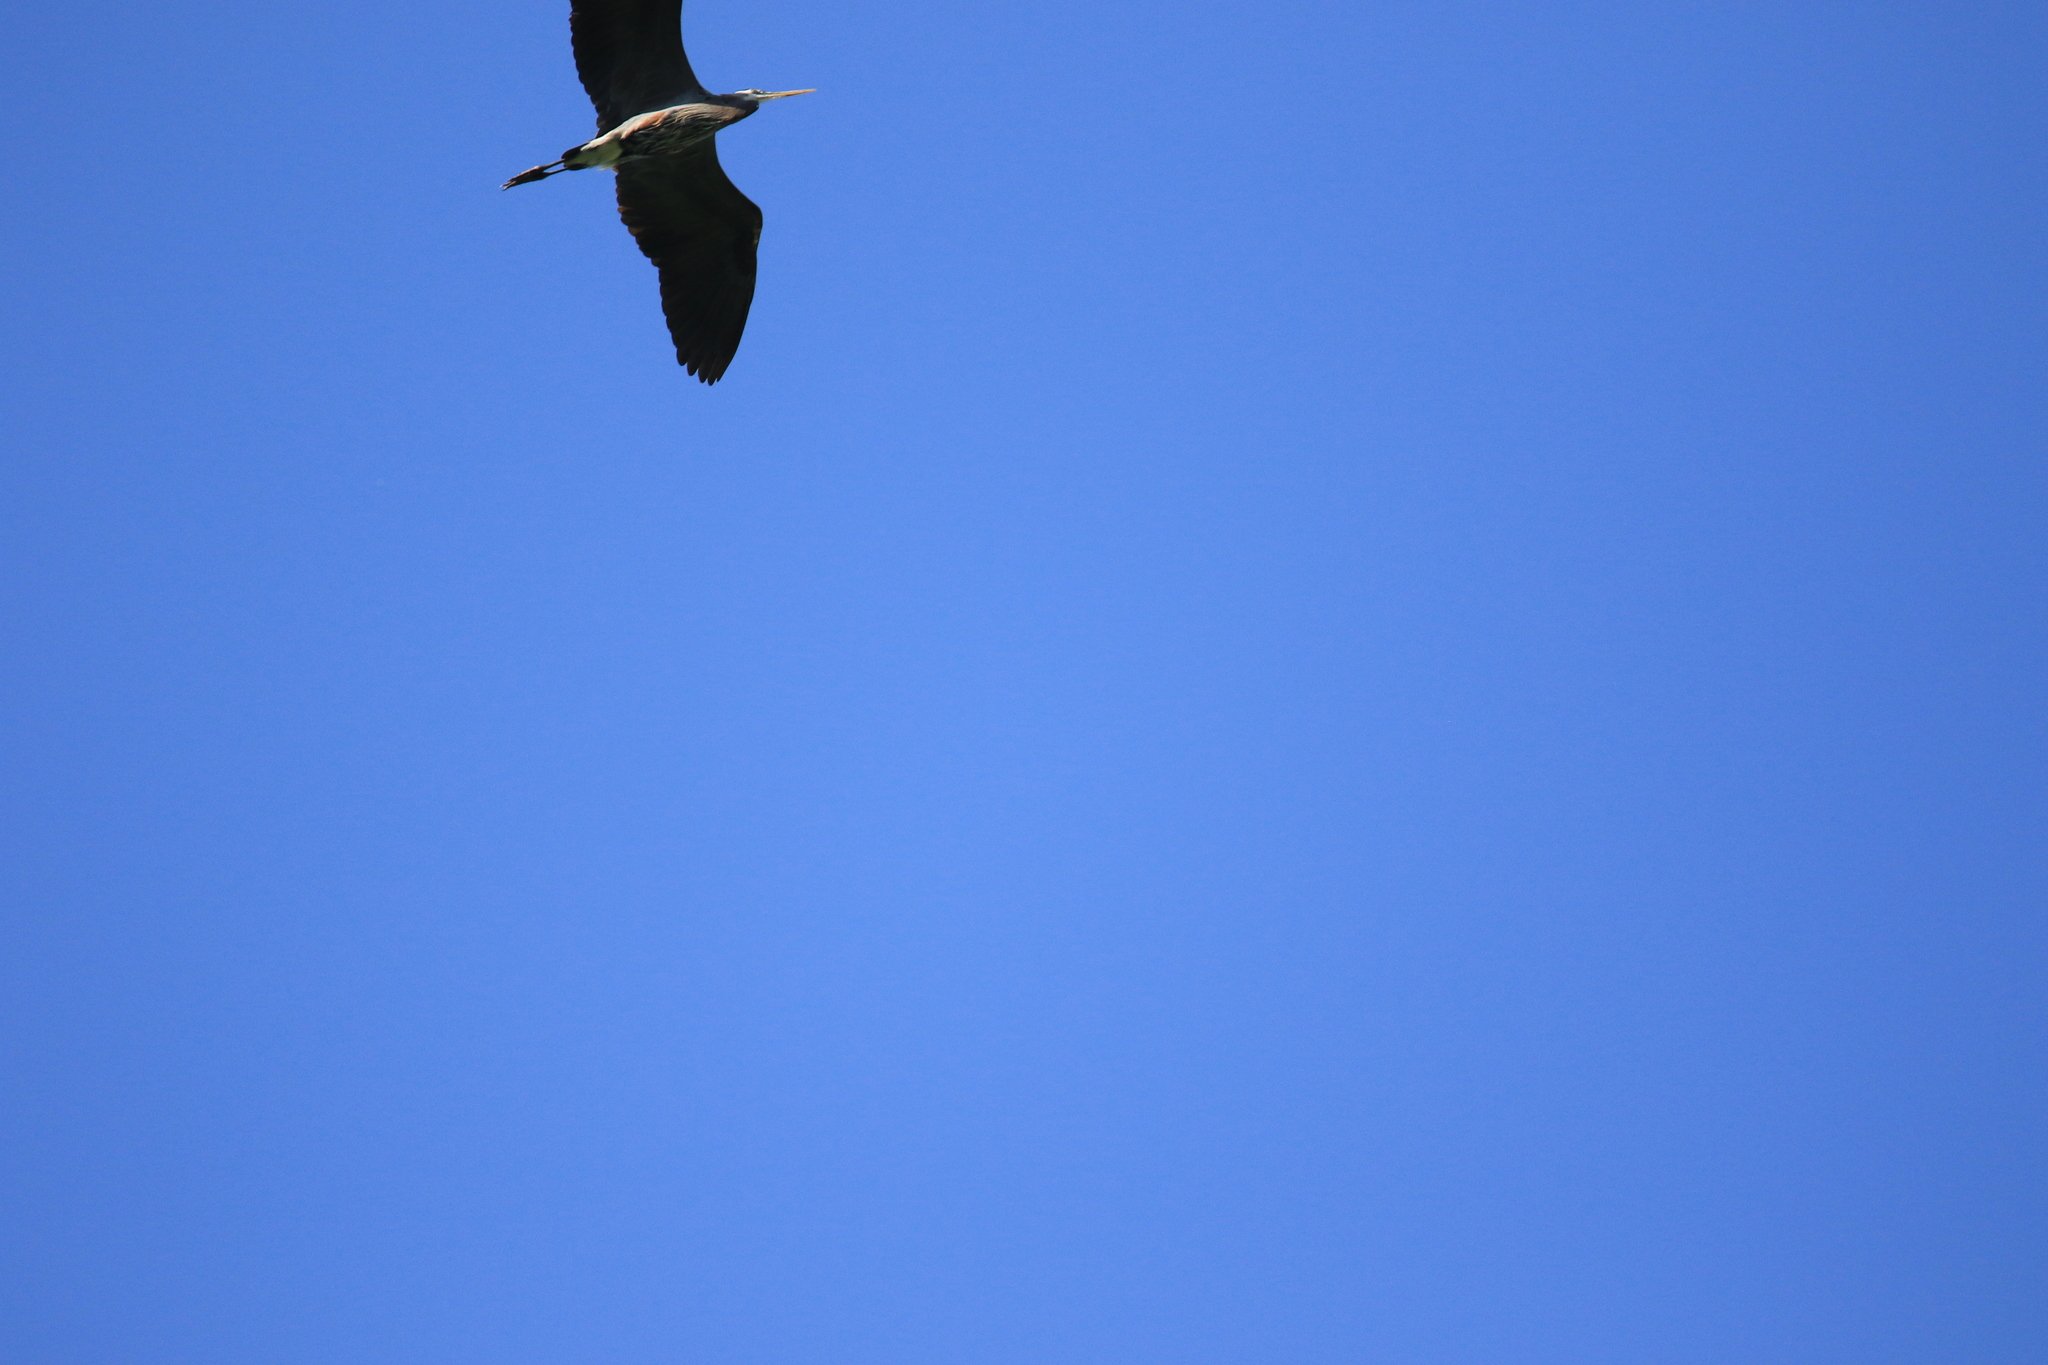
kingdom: Animalia
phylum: Chordata
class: Aves
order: Pelecaniformes
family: Ardeidae
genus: Ardea
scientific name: Ardea herodias
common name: Great blue heron
